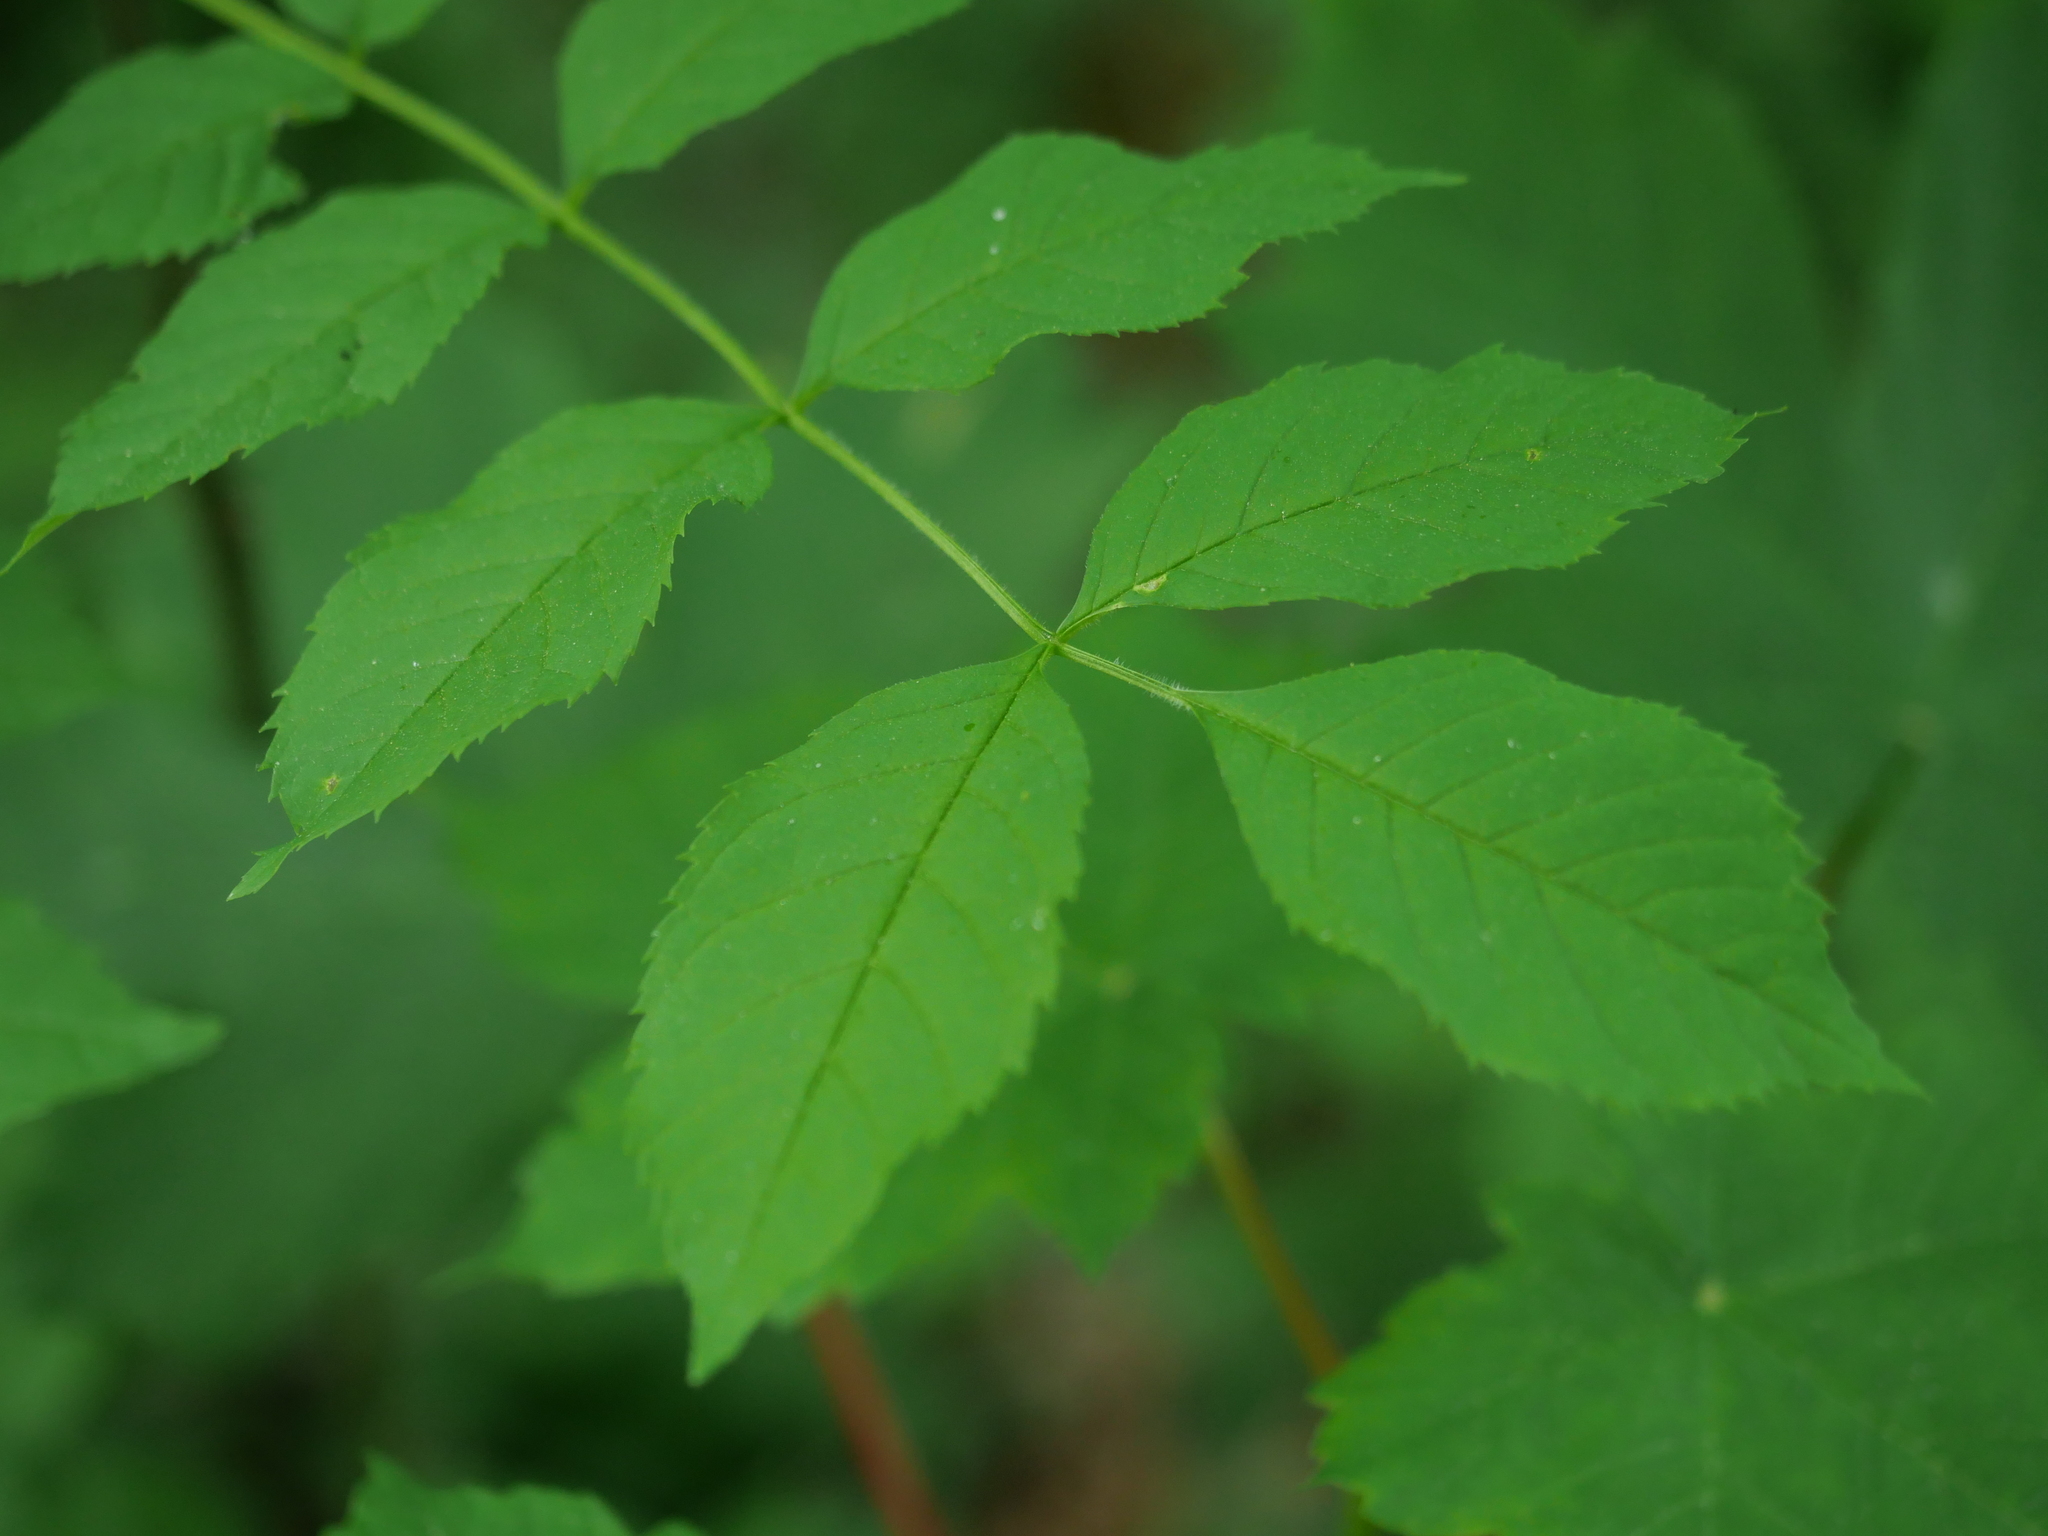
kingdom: Plantae
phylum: Tracheophyta
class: Magnoliopsida
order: Lamiales
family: Oleaceae
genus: Fraxinus
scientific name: Fraxinus excelsior
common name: European ash
